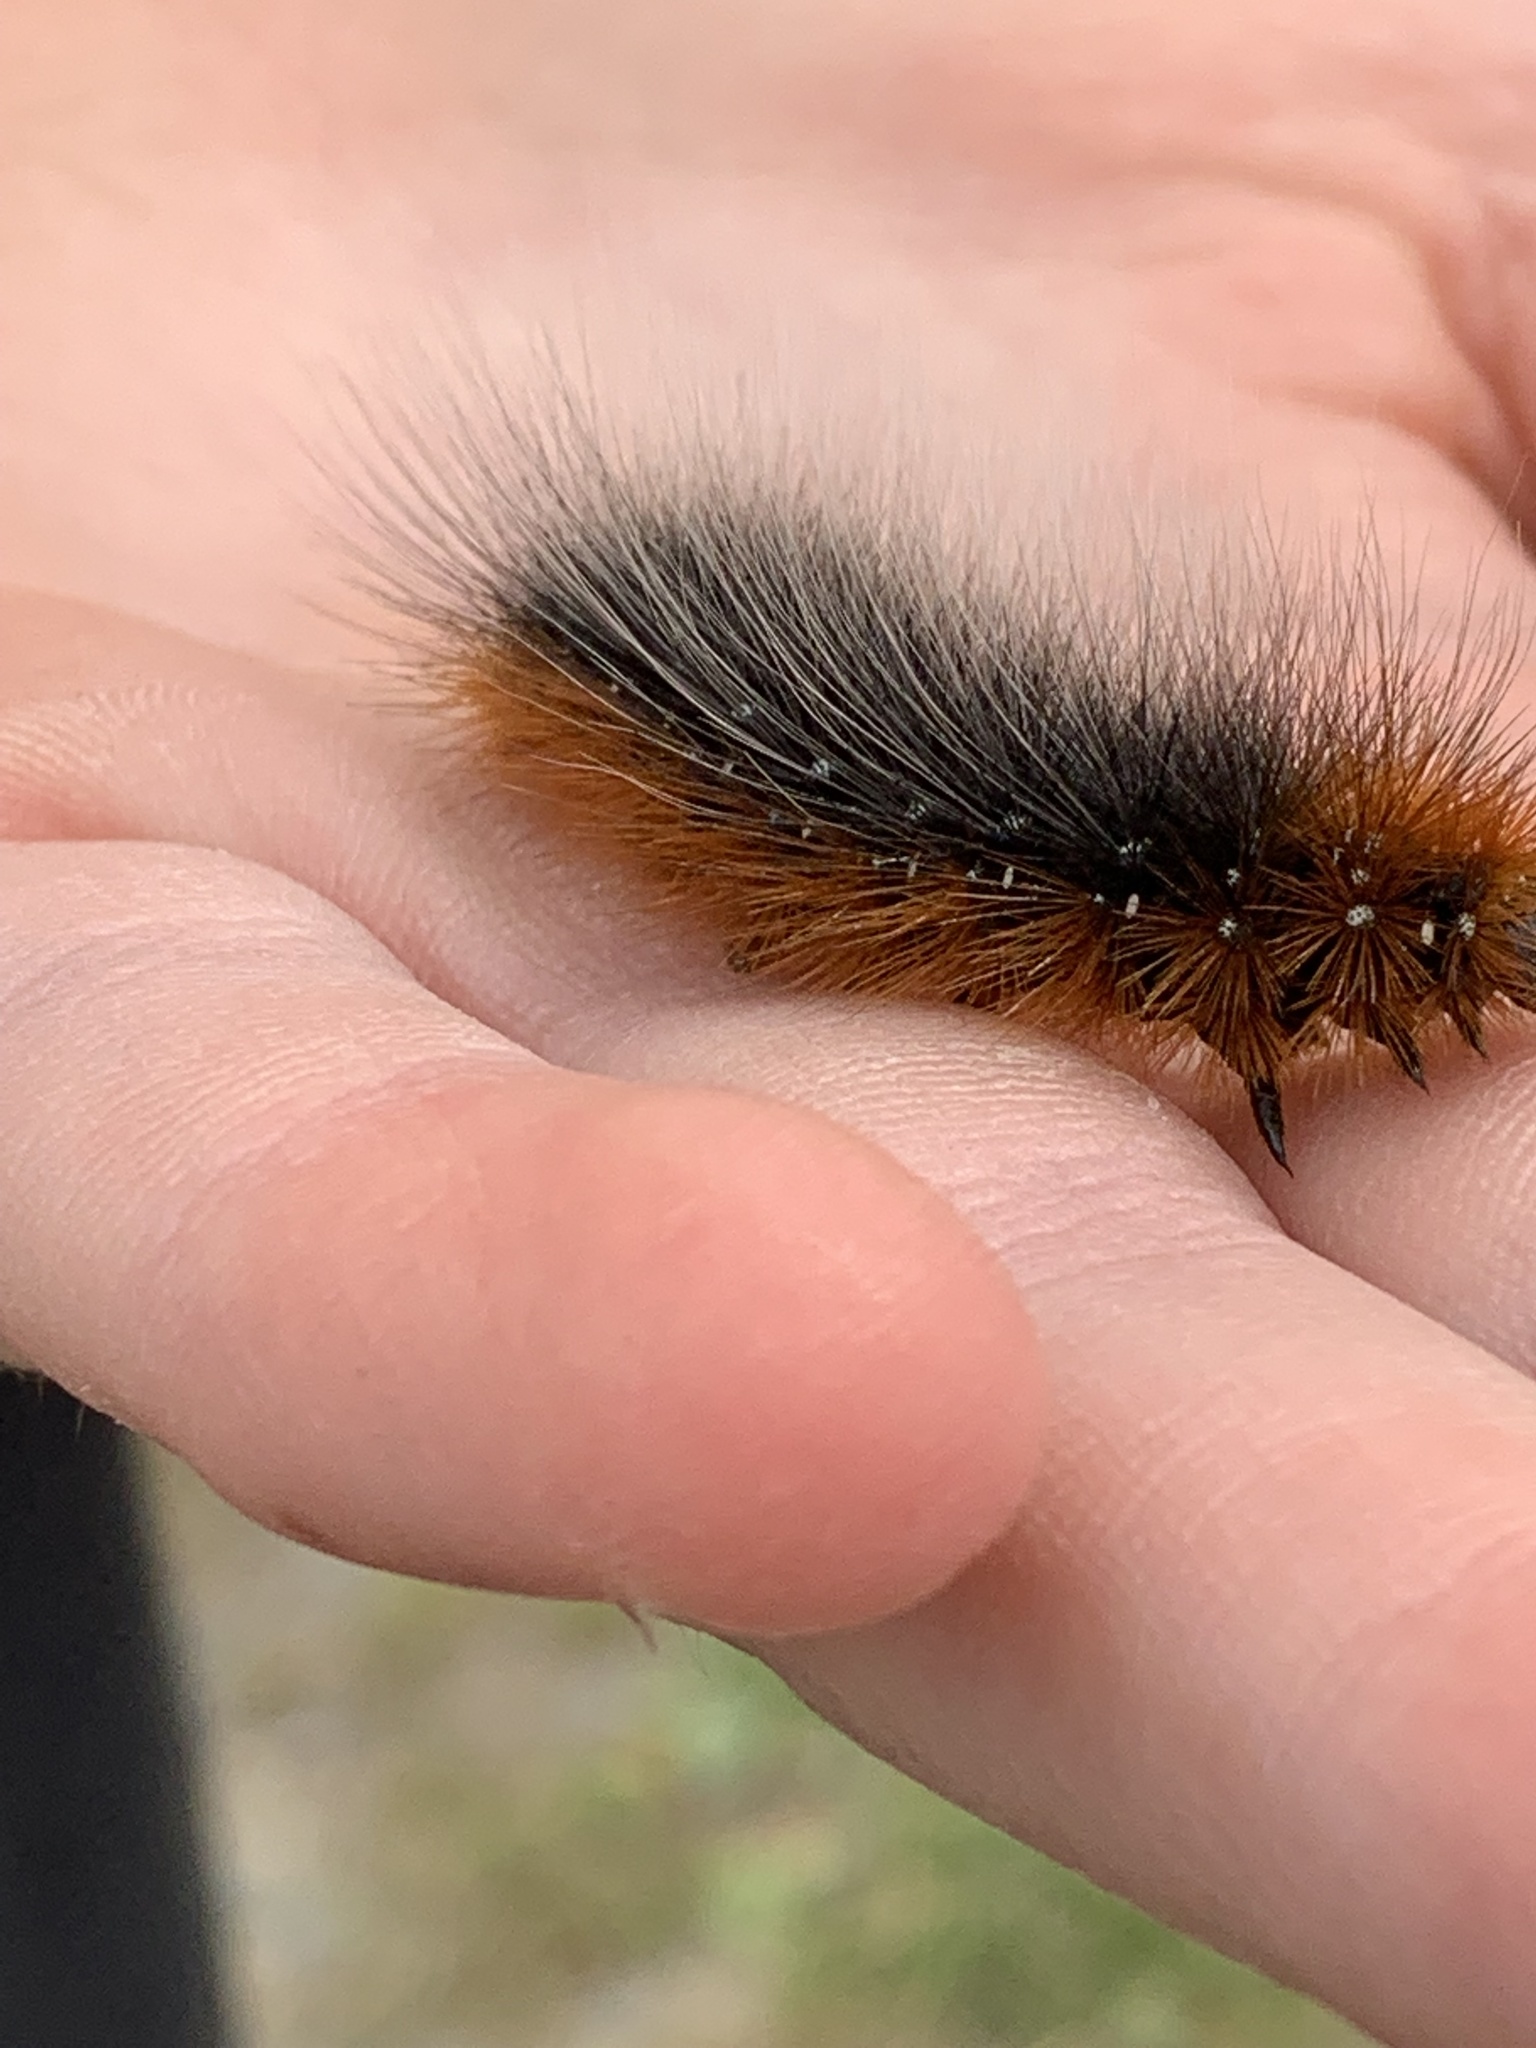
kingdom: Animalia
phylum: Arthropoda
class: Insecta
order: Lepidoptera
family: Erebidae
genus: Arctia
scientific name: Arctia caja
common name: Garden tiger
